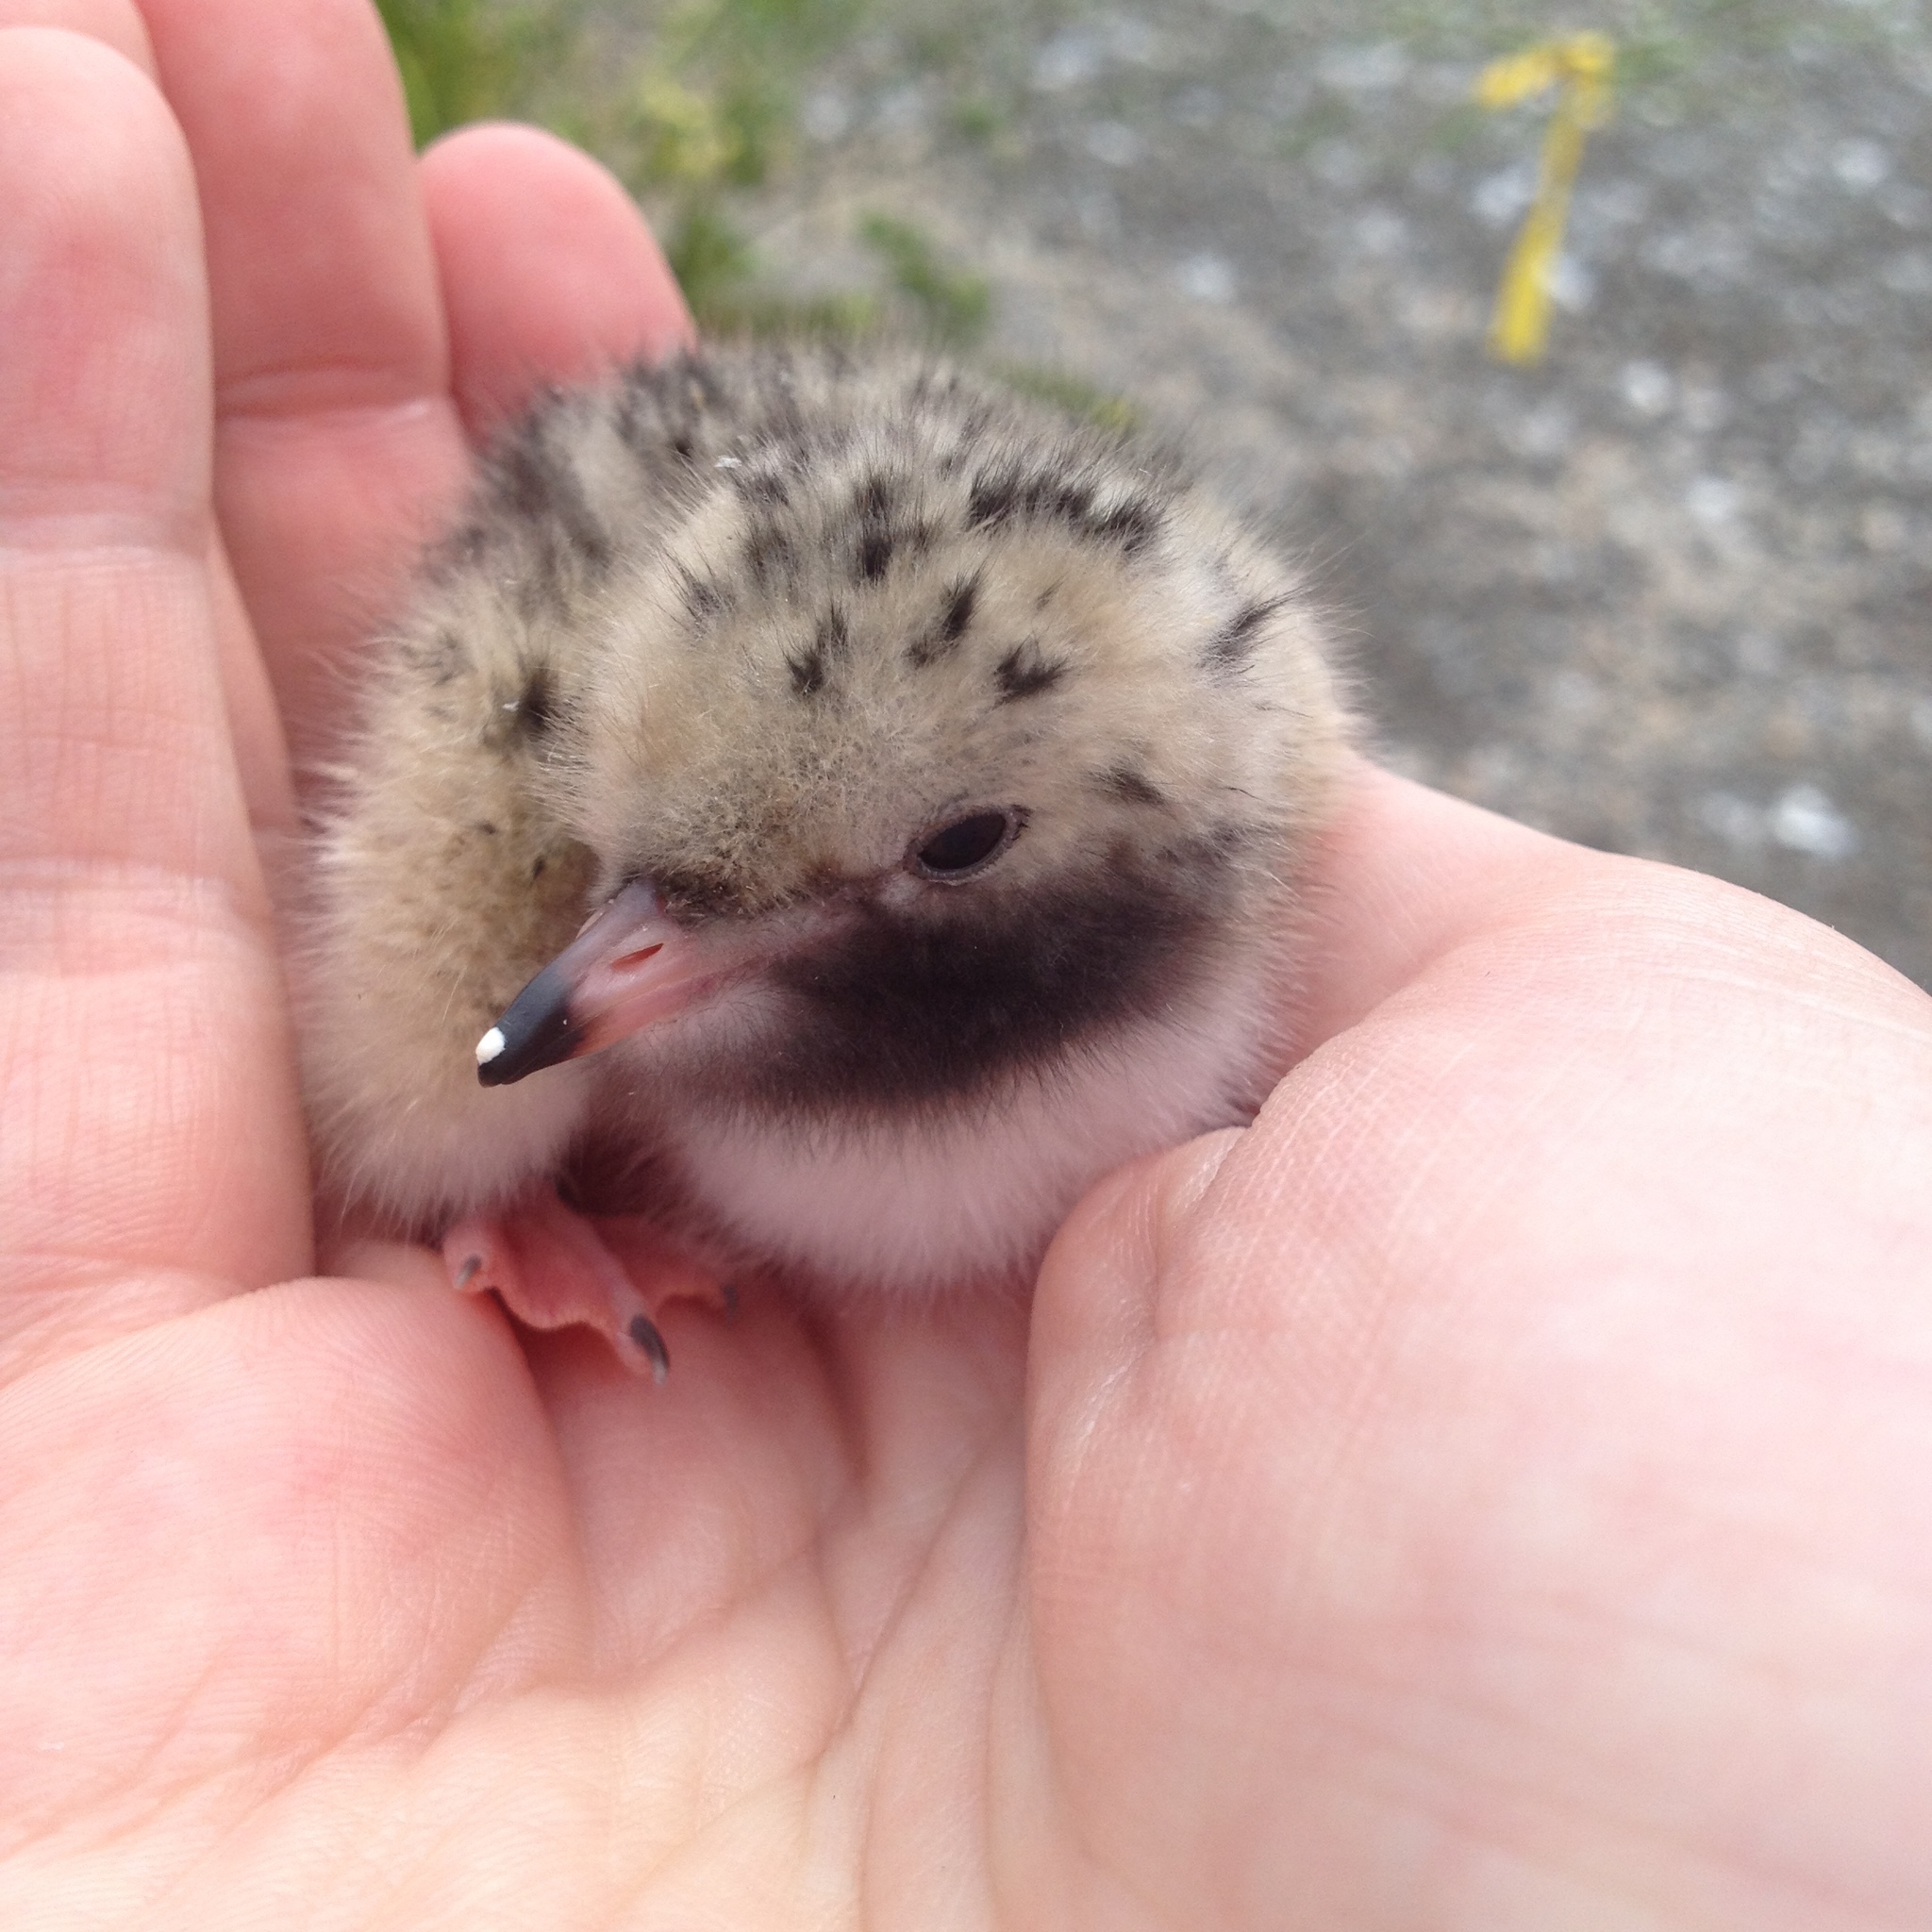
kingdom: Animalia
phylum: Chordata
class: Aves
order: Charadriiformes
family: Laridae
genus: Sterna
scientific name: Sterna hirundo
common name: Common tern
